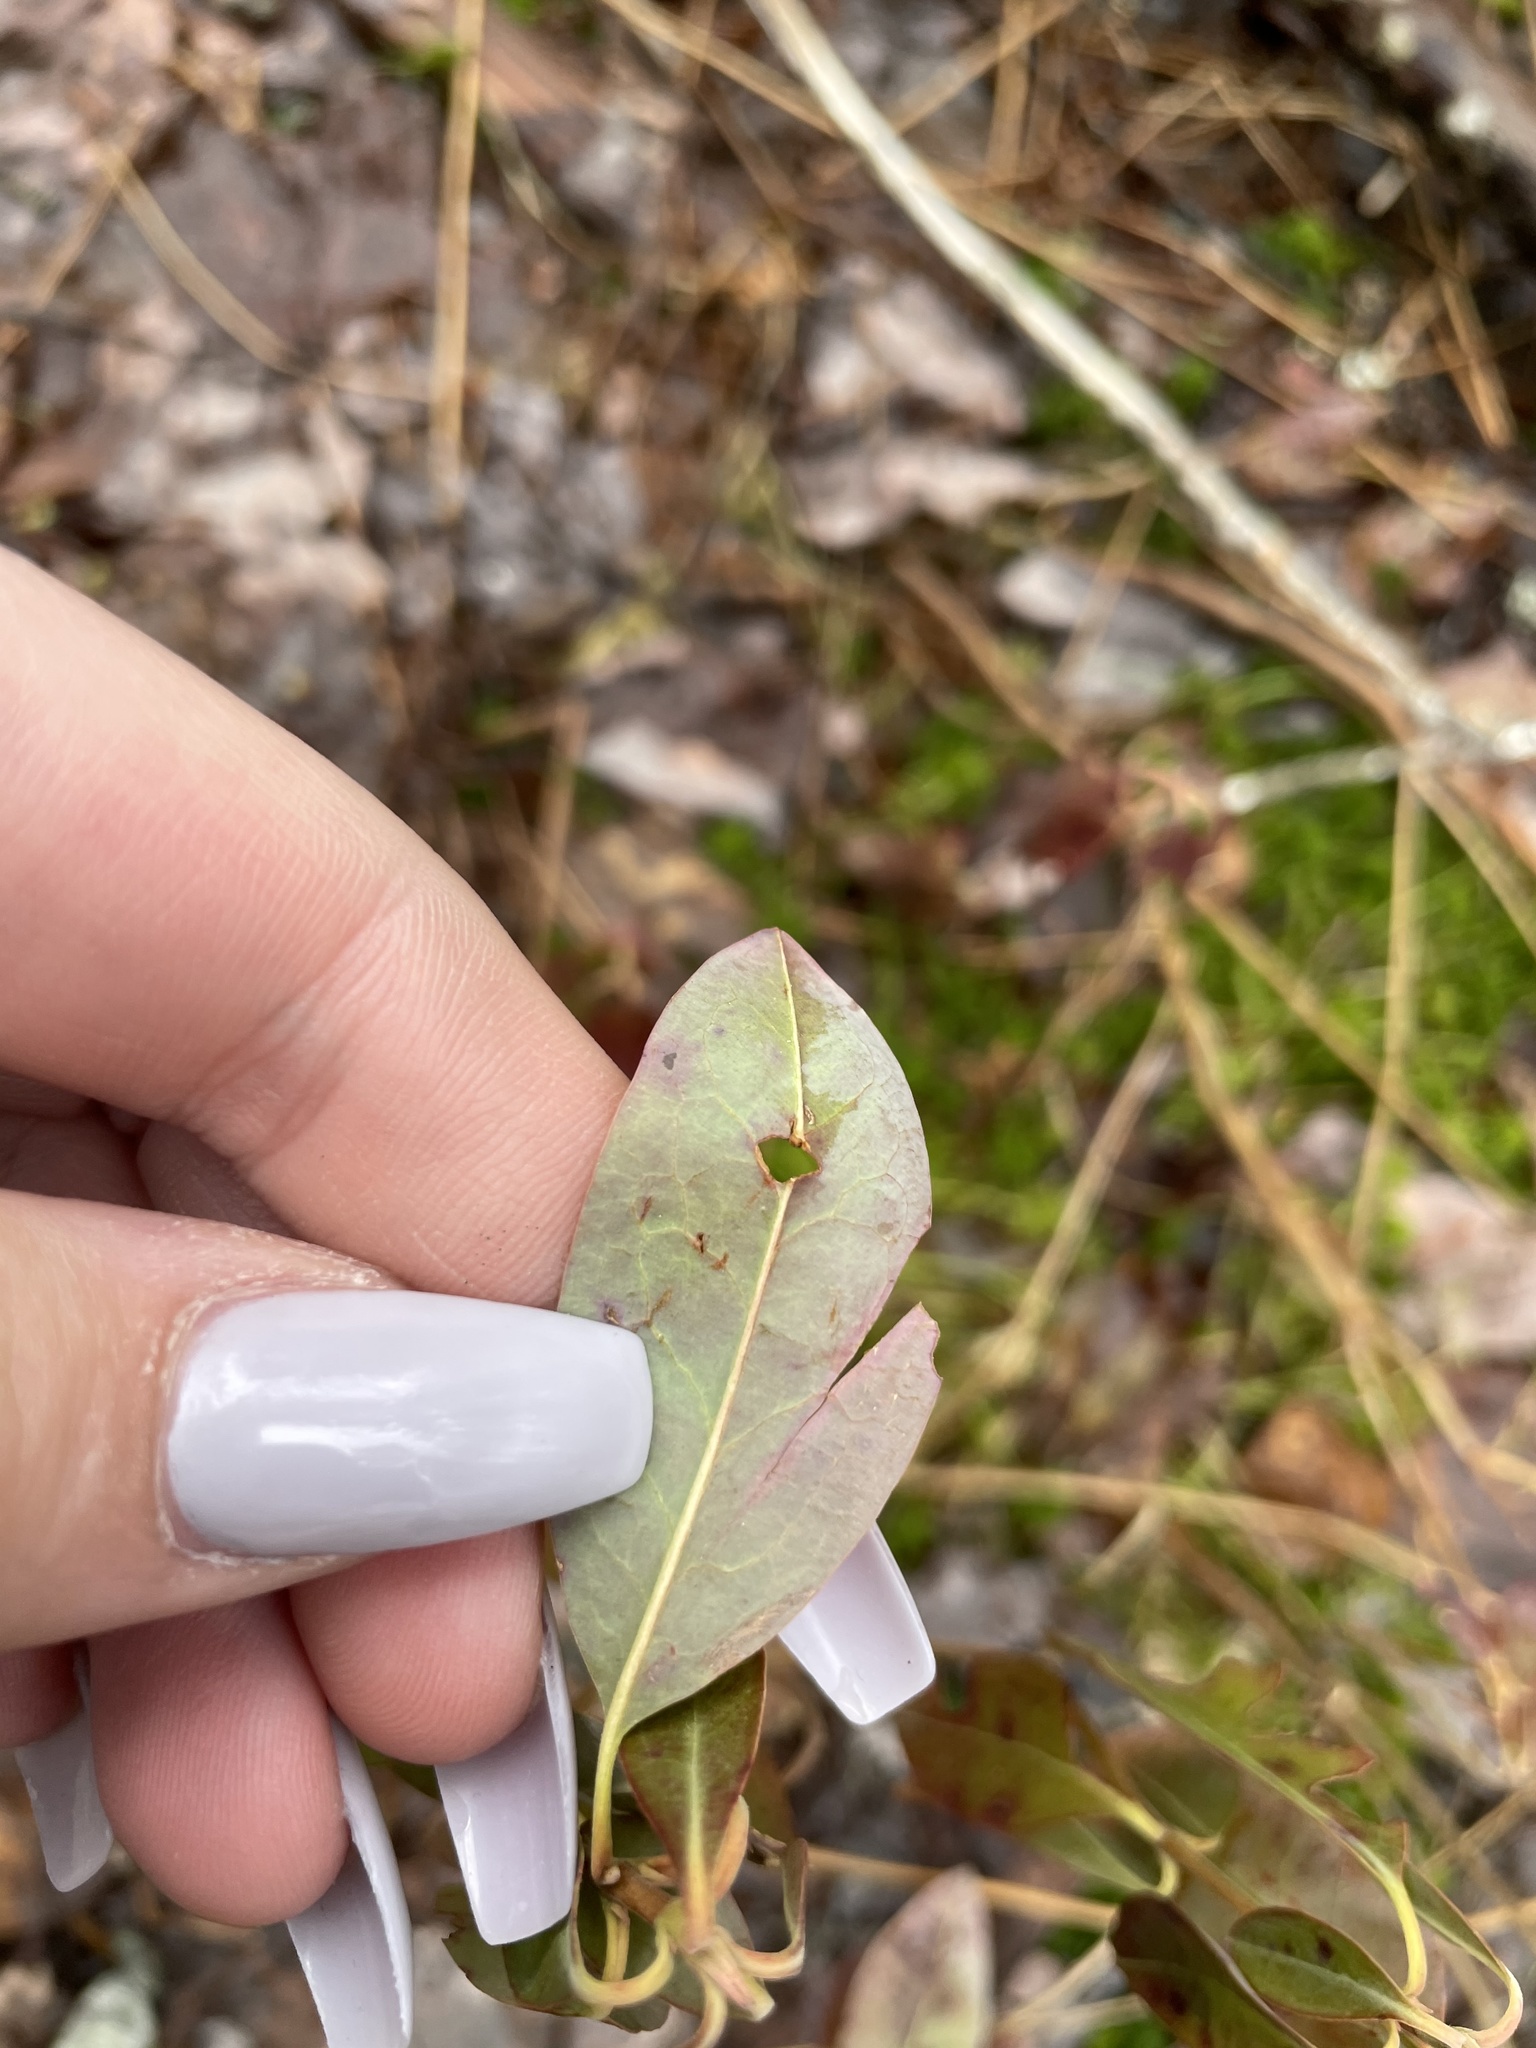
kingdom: Plantae
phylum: Tracheophyta
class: Magnoliopsida
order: Ericales
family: Ericaceae
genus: Kalmia
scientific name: Kalmia angustifolia
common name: Sheep-laurel
